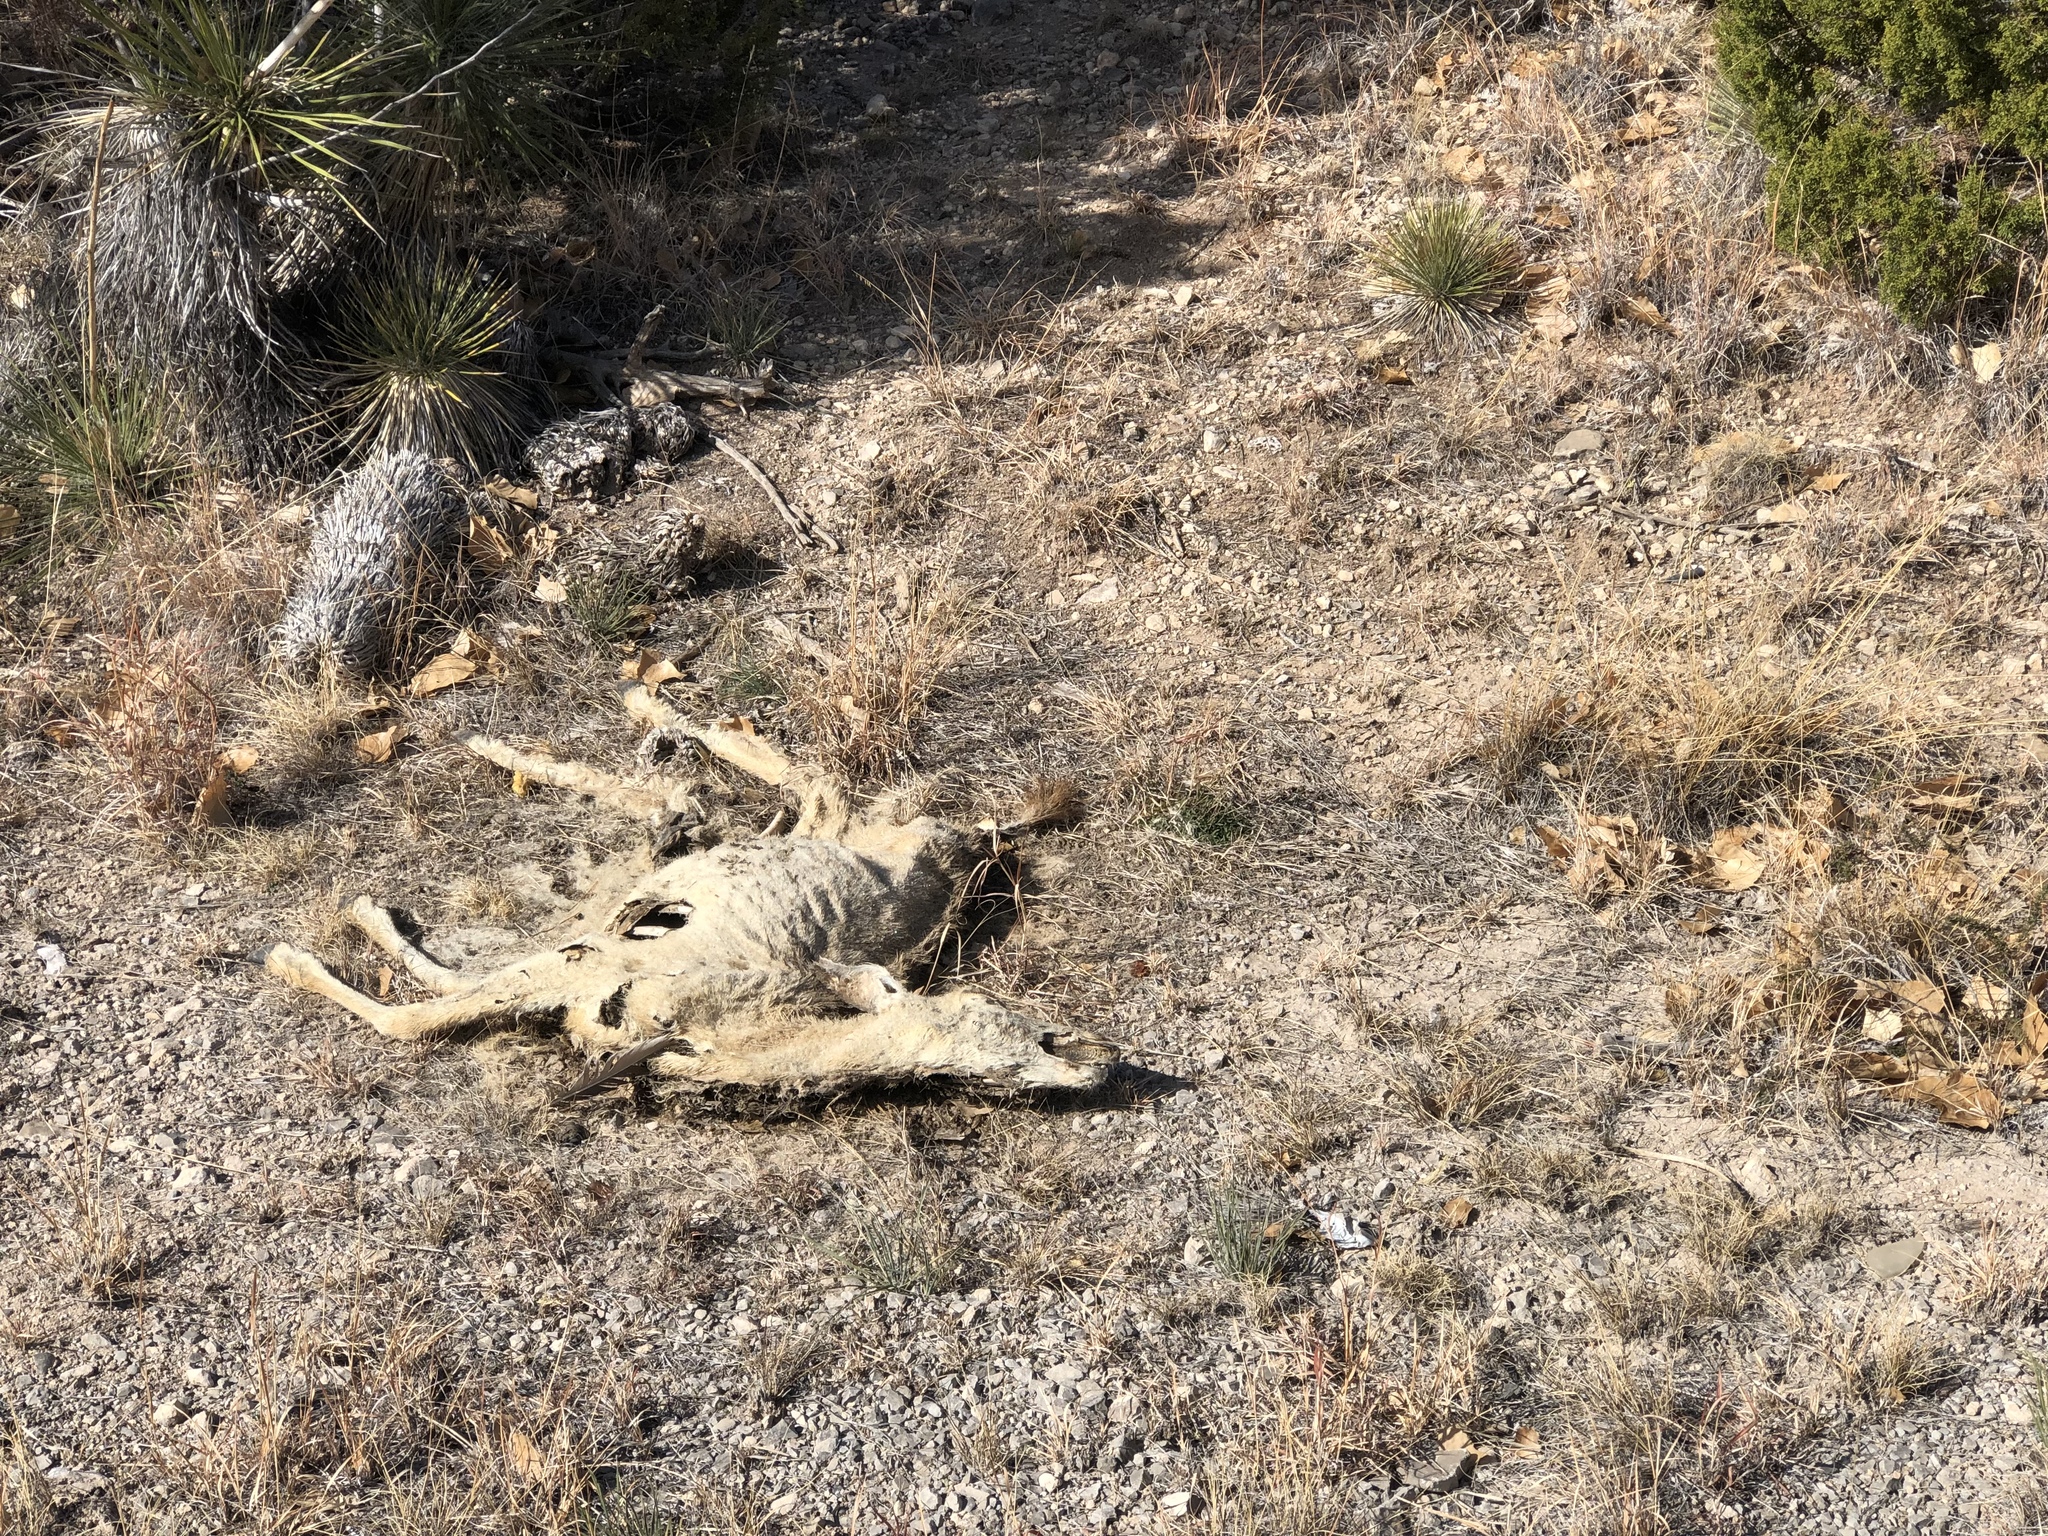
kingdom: Animalia
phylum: Chordata
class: Mammalia
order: Artiodactyla
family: Cervidae
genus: Odocoileus
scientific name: Odocoileus hemionus
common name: Mule deer
